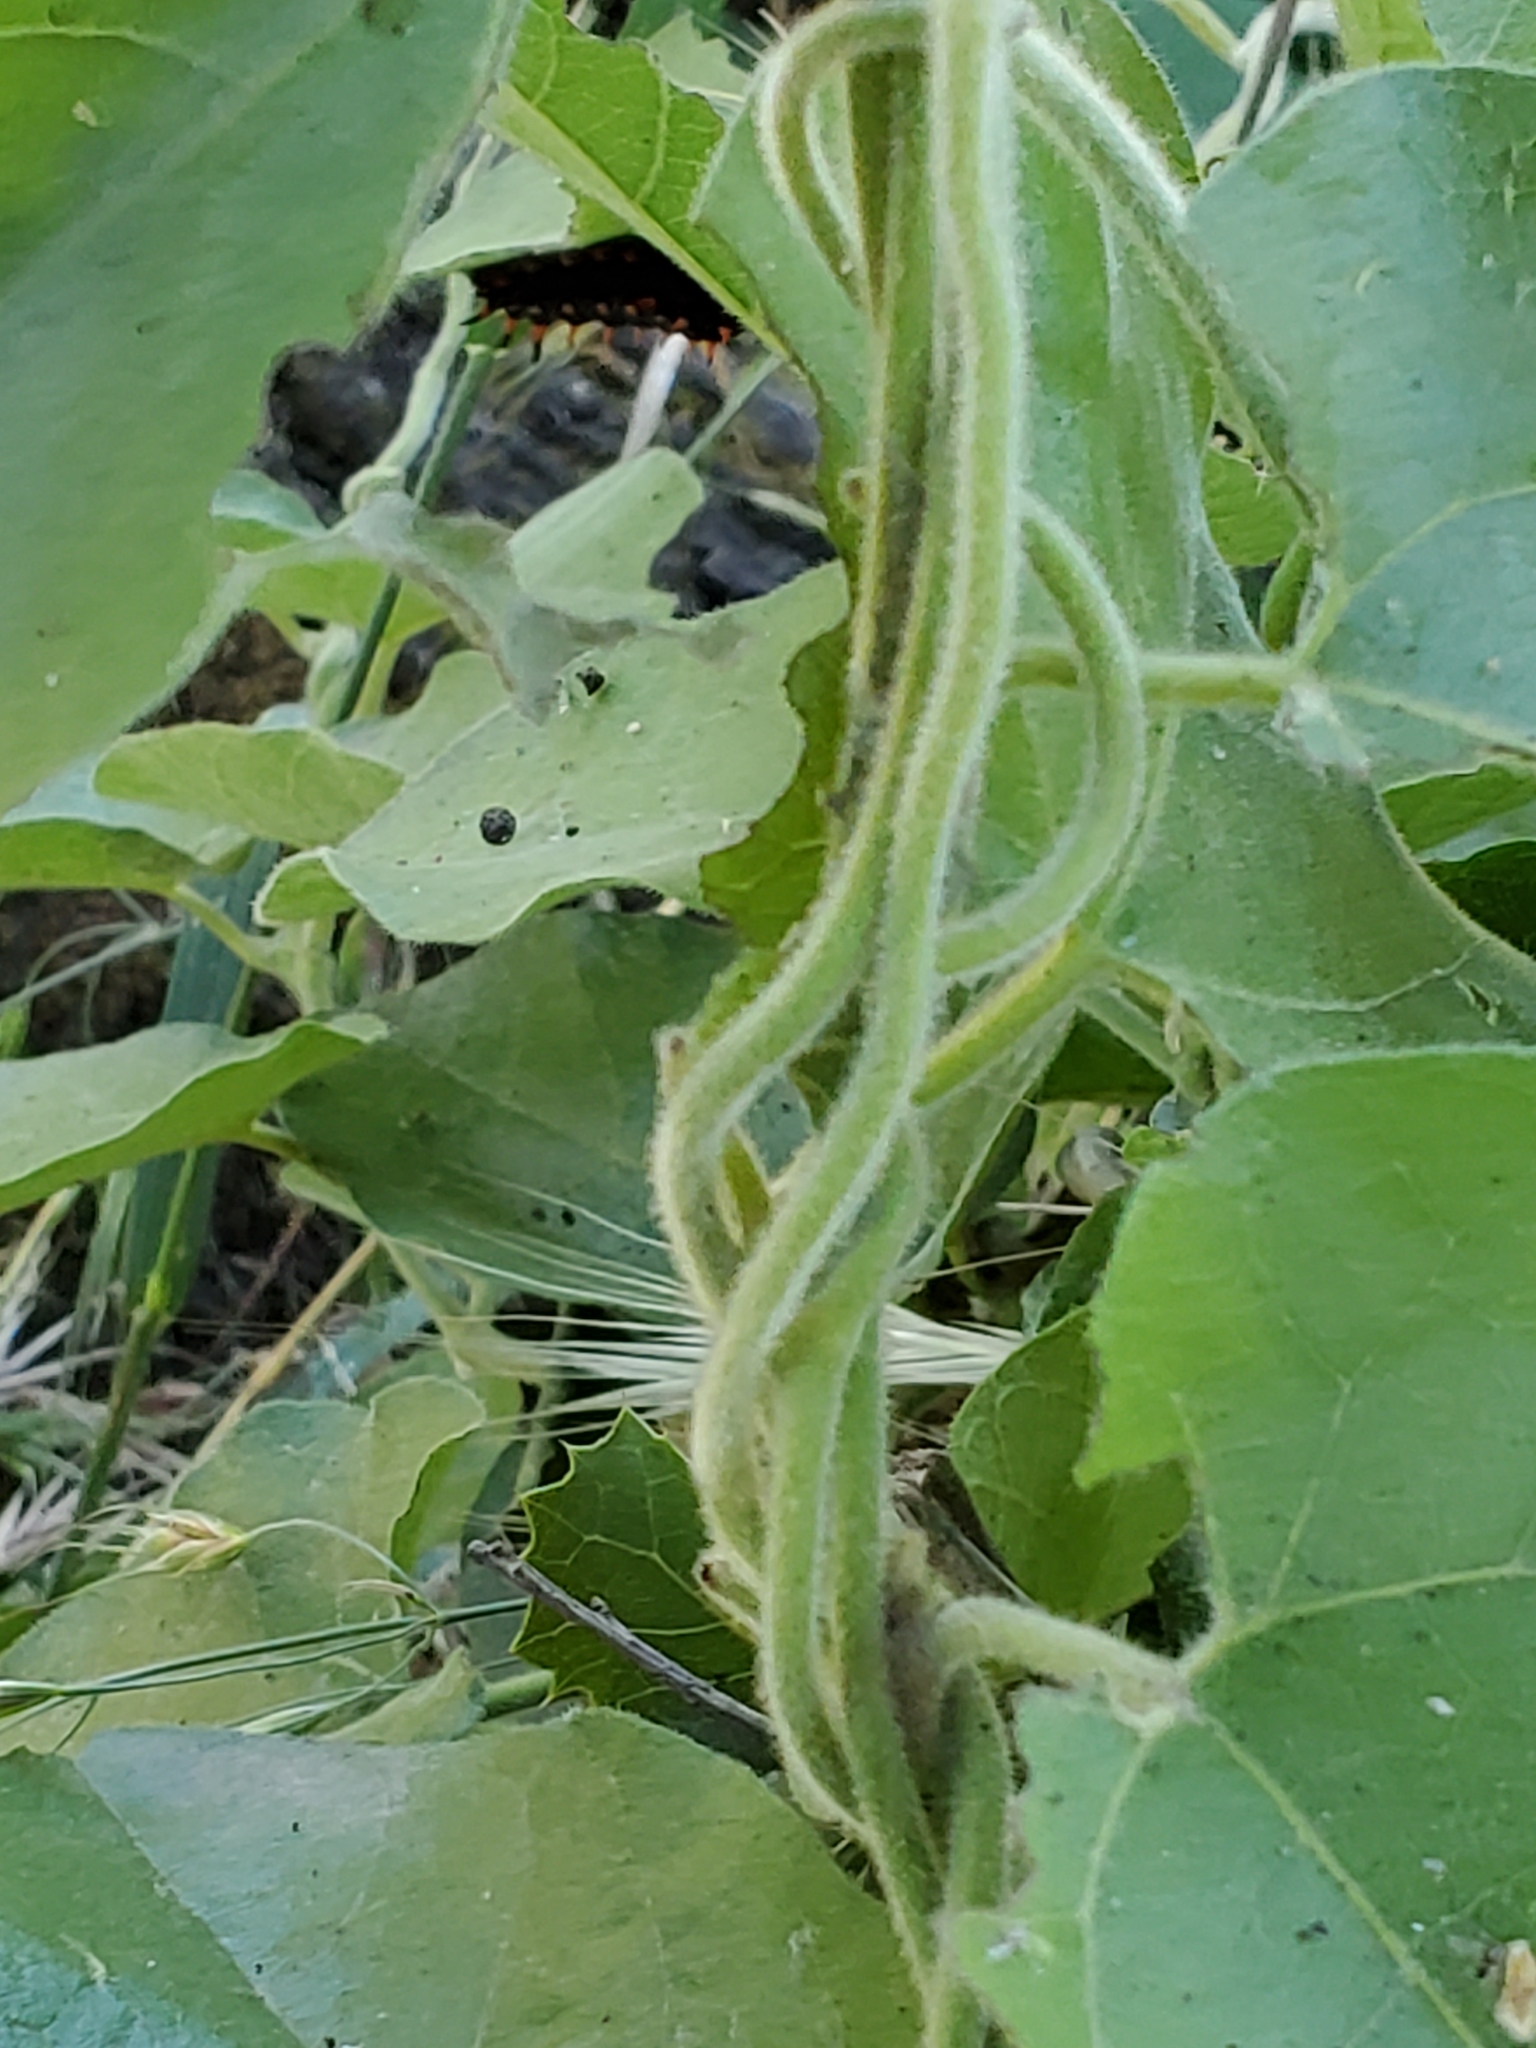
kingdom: Plantae
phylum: Tracheophyta
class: Magnoliopsida
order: Piperales
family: Aristolochiaceae
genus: Isotrema
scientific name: Isotrema californicum
